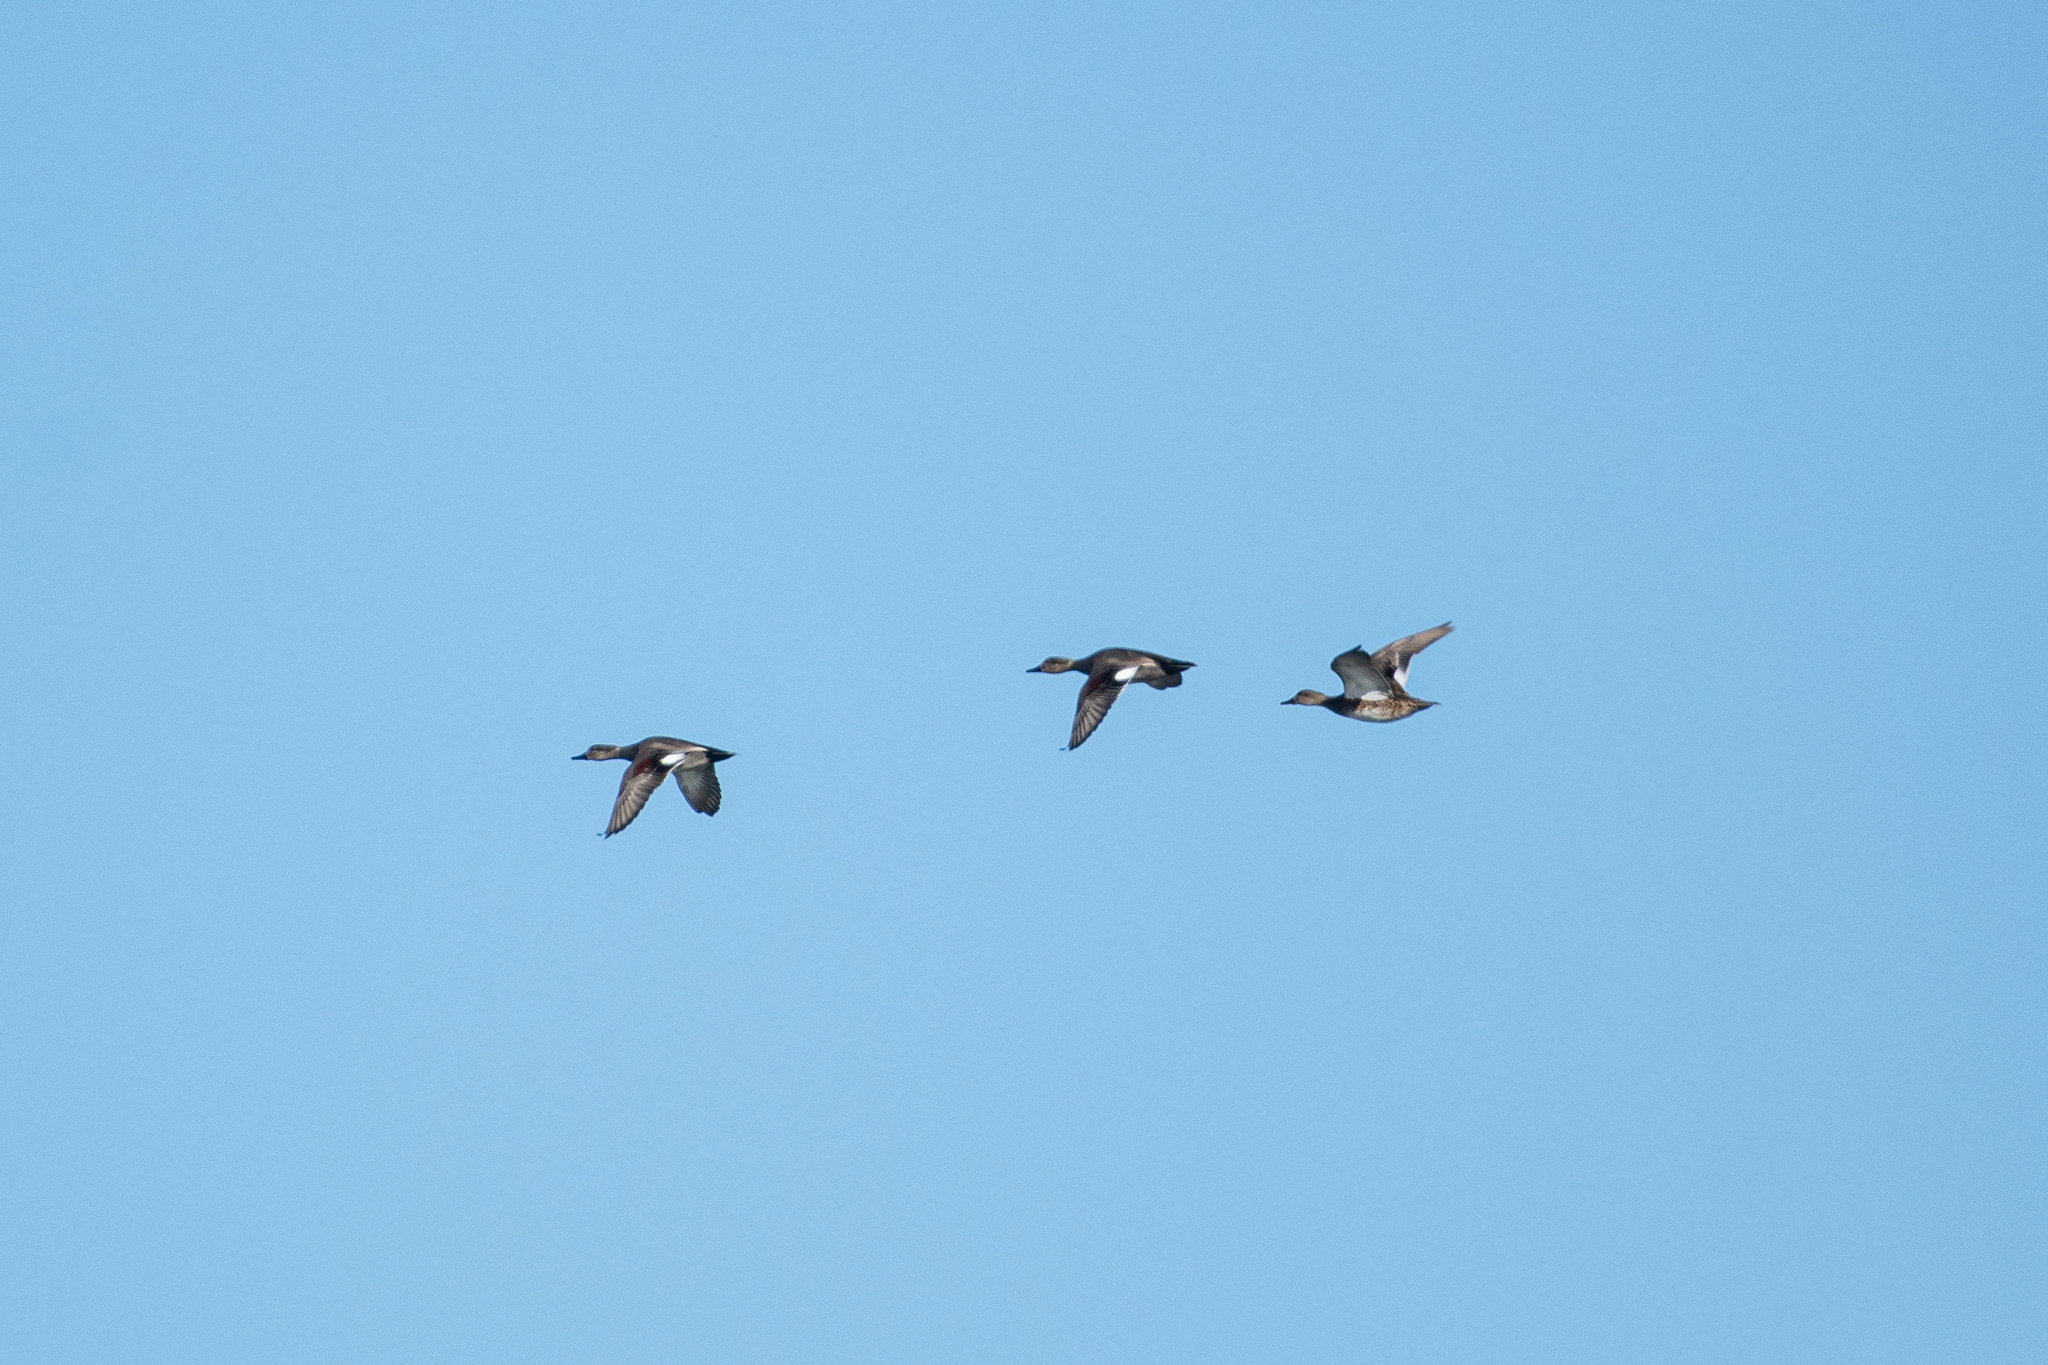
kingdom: Animalia
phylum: Chordata
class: Aves
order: Anseriformes
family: Anatidae
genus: Mareca
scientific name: Mareca strepera
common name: Gadwall
